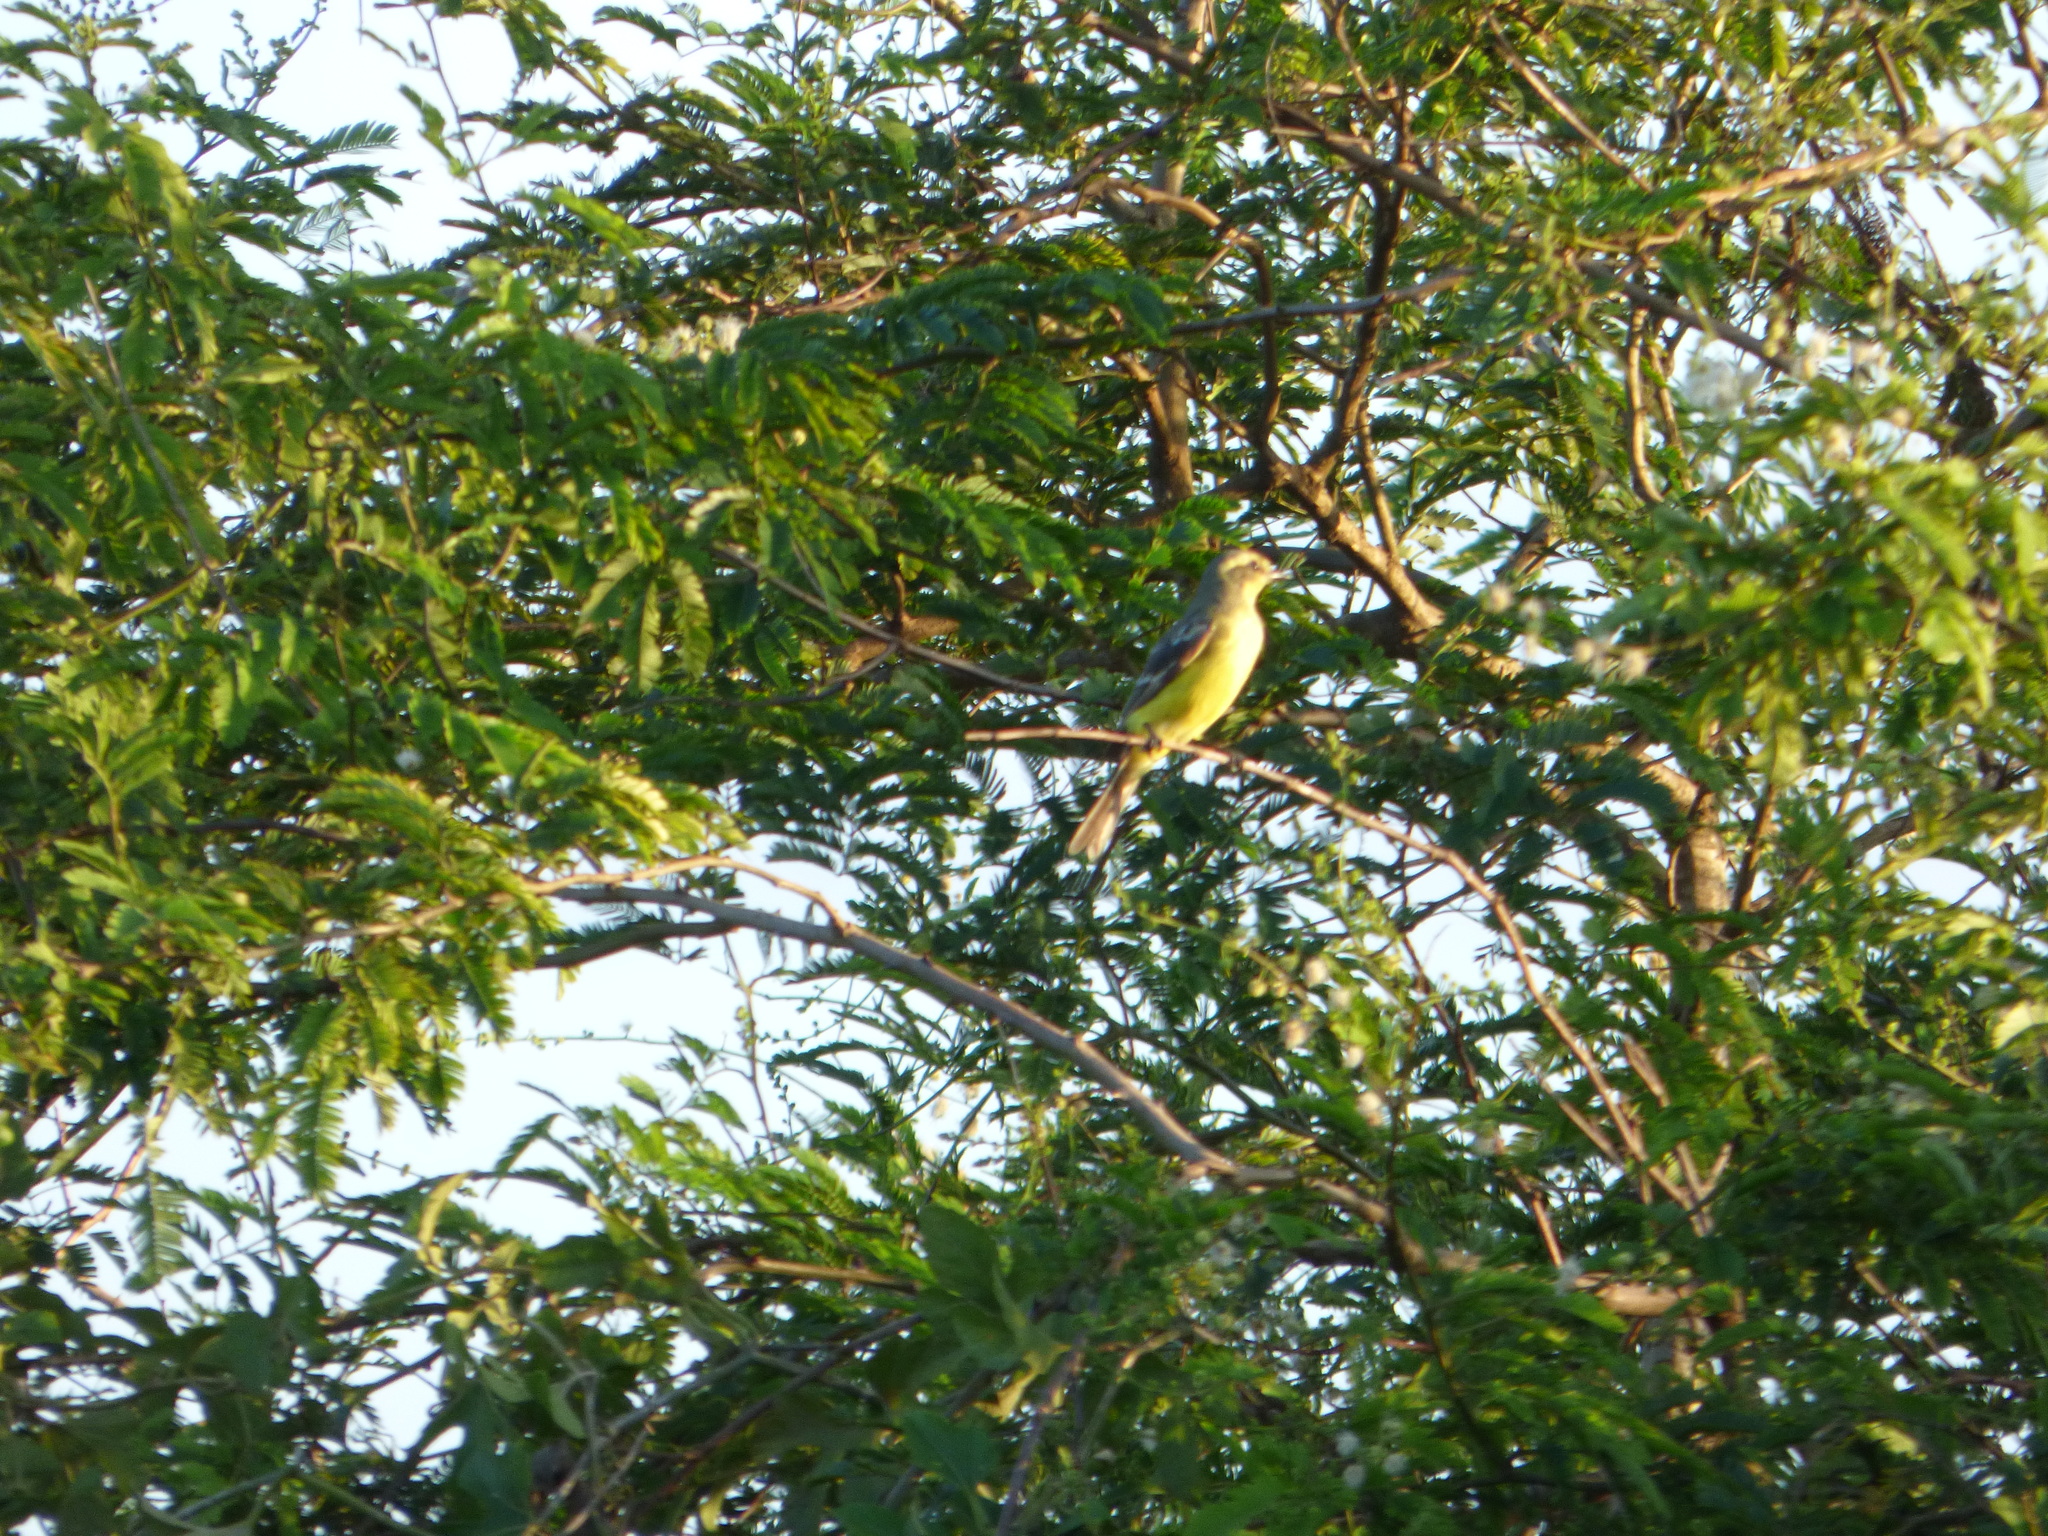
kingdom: Animalia
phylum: Chordata
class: Aves
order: Passeriformes
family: Tyrannidae
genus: Satrapa
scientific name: Satrapa icterophrys
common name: Yellow-browed tyrant
